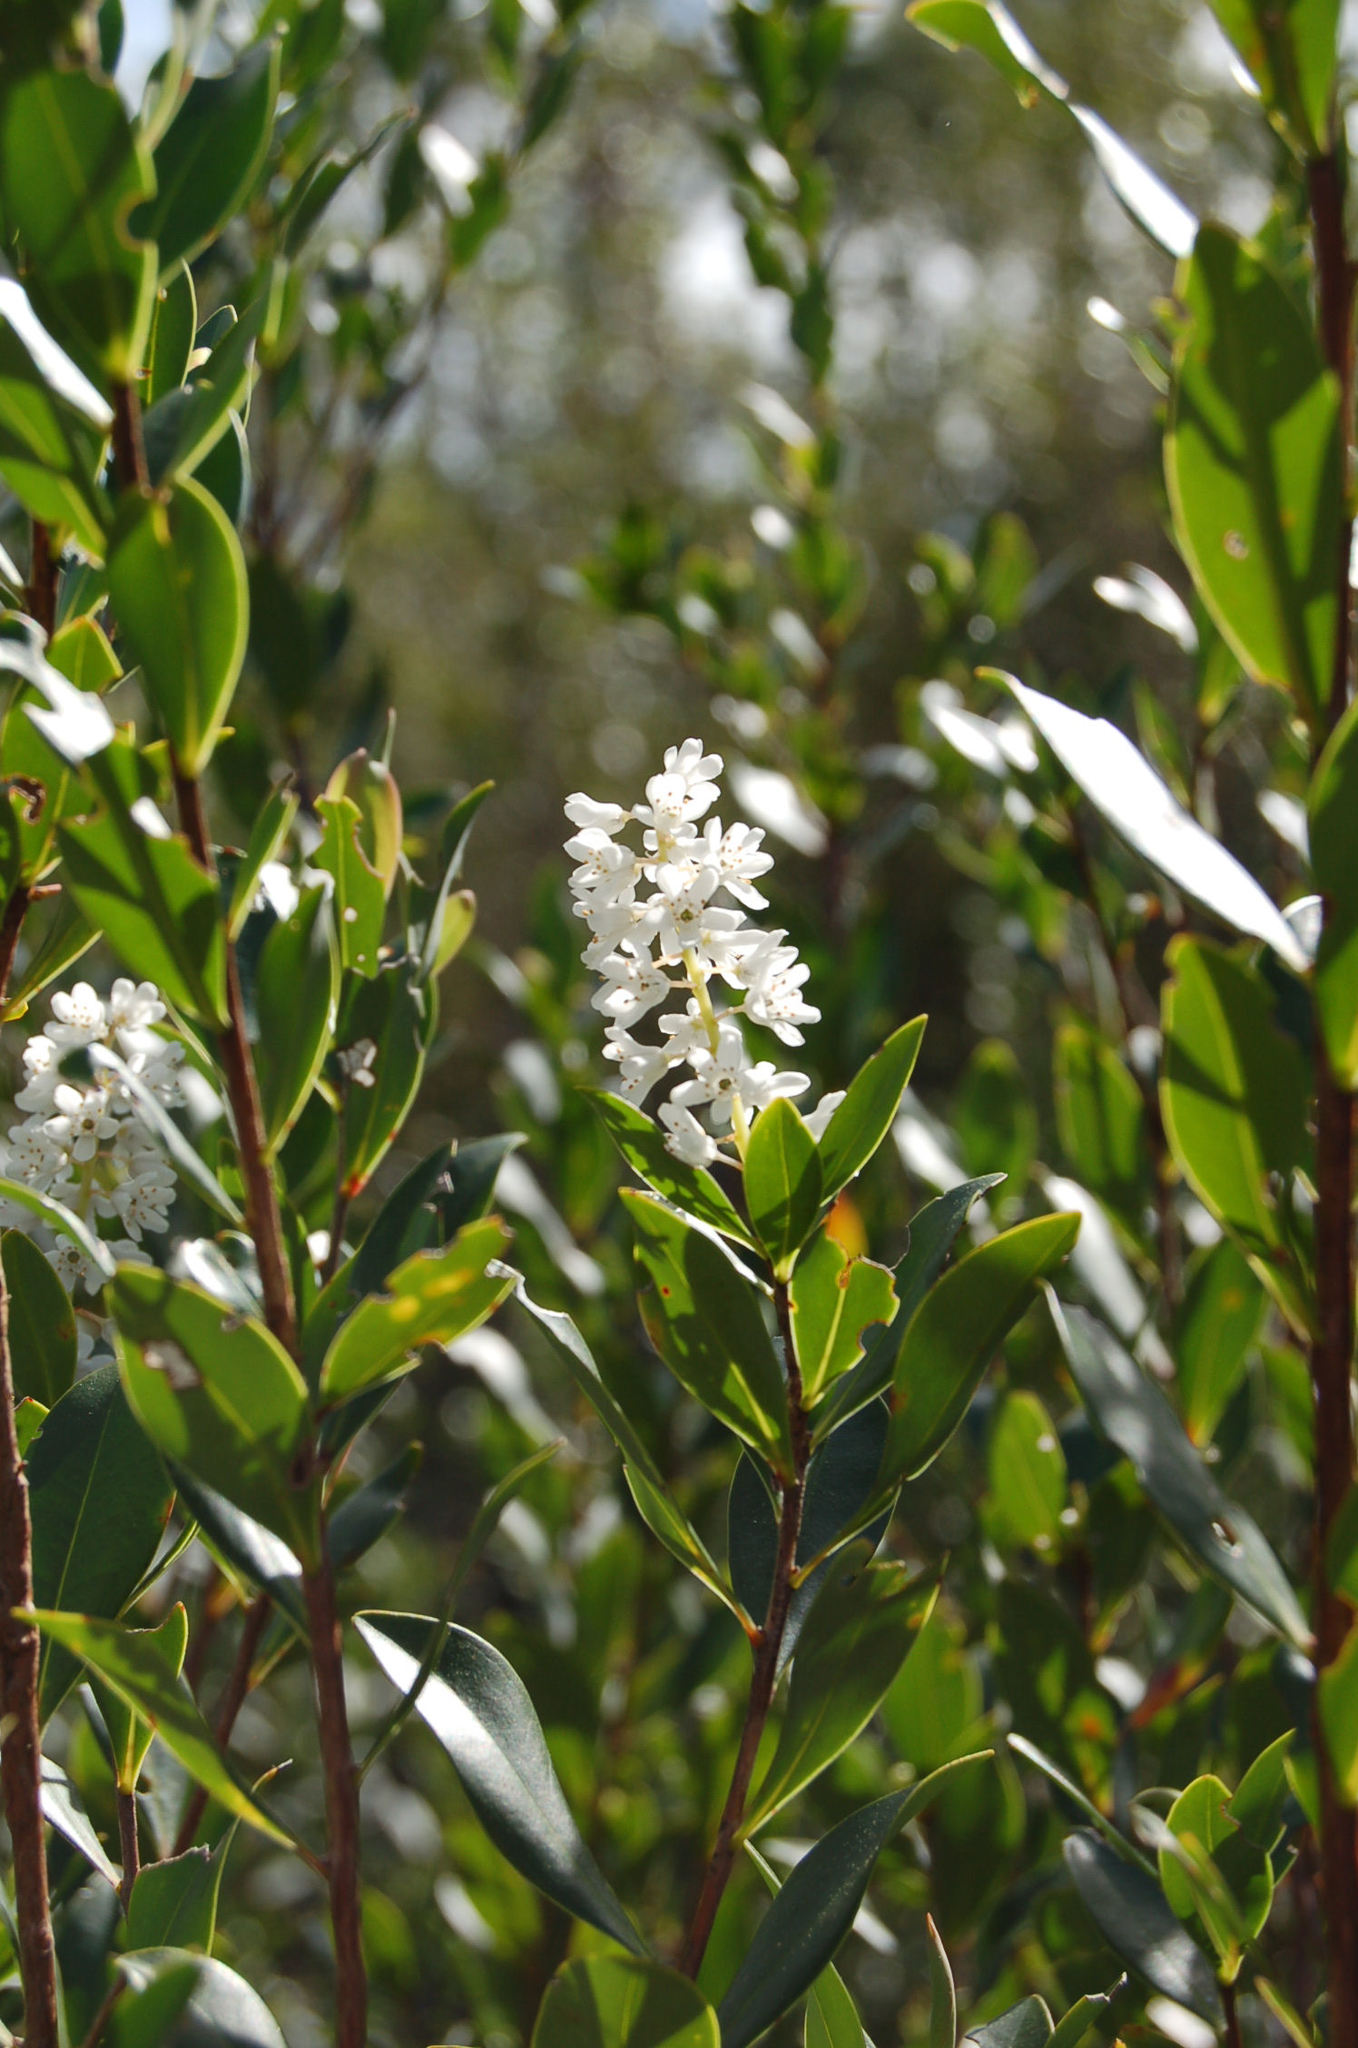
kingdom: Plantae
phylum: Tracheophyta
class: Magnoliopsida
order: Ericales
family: Cyrillaceae
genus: Cliftonia
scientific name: Cliftonia monophylla
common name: Titi
